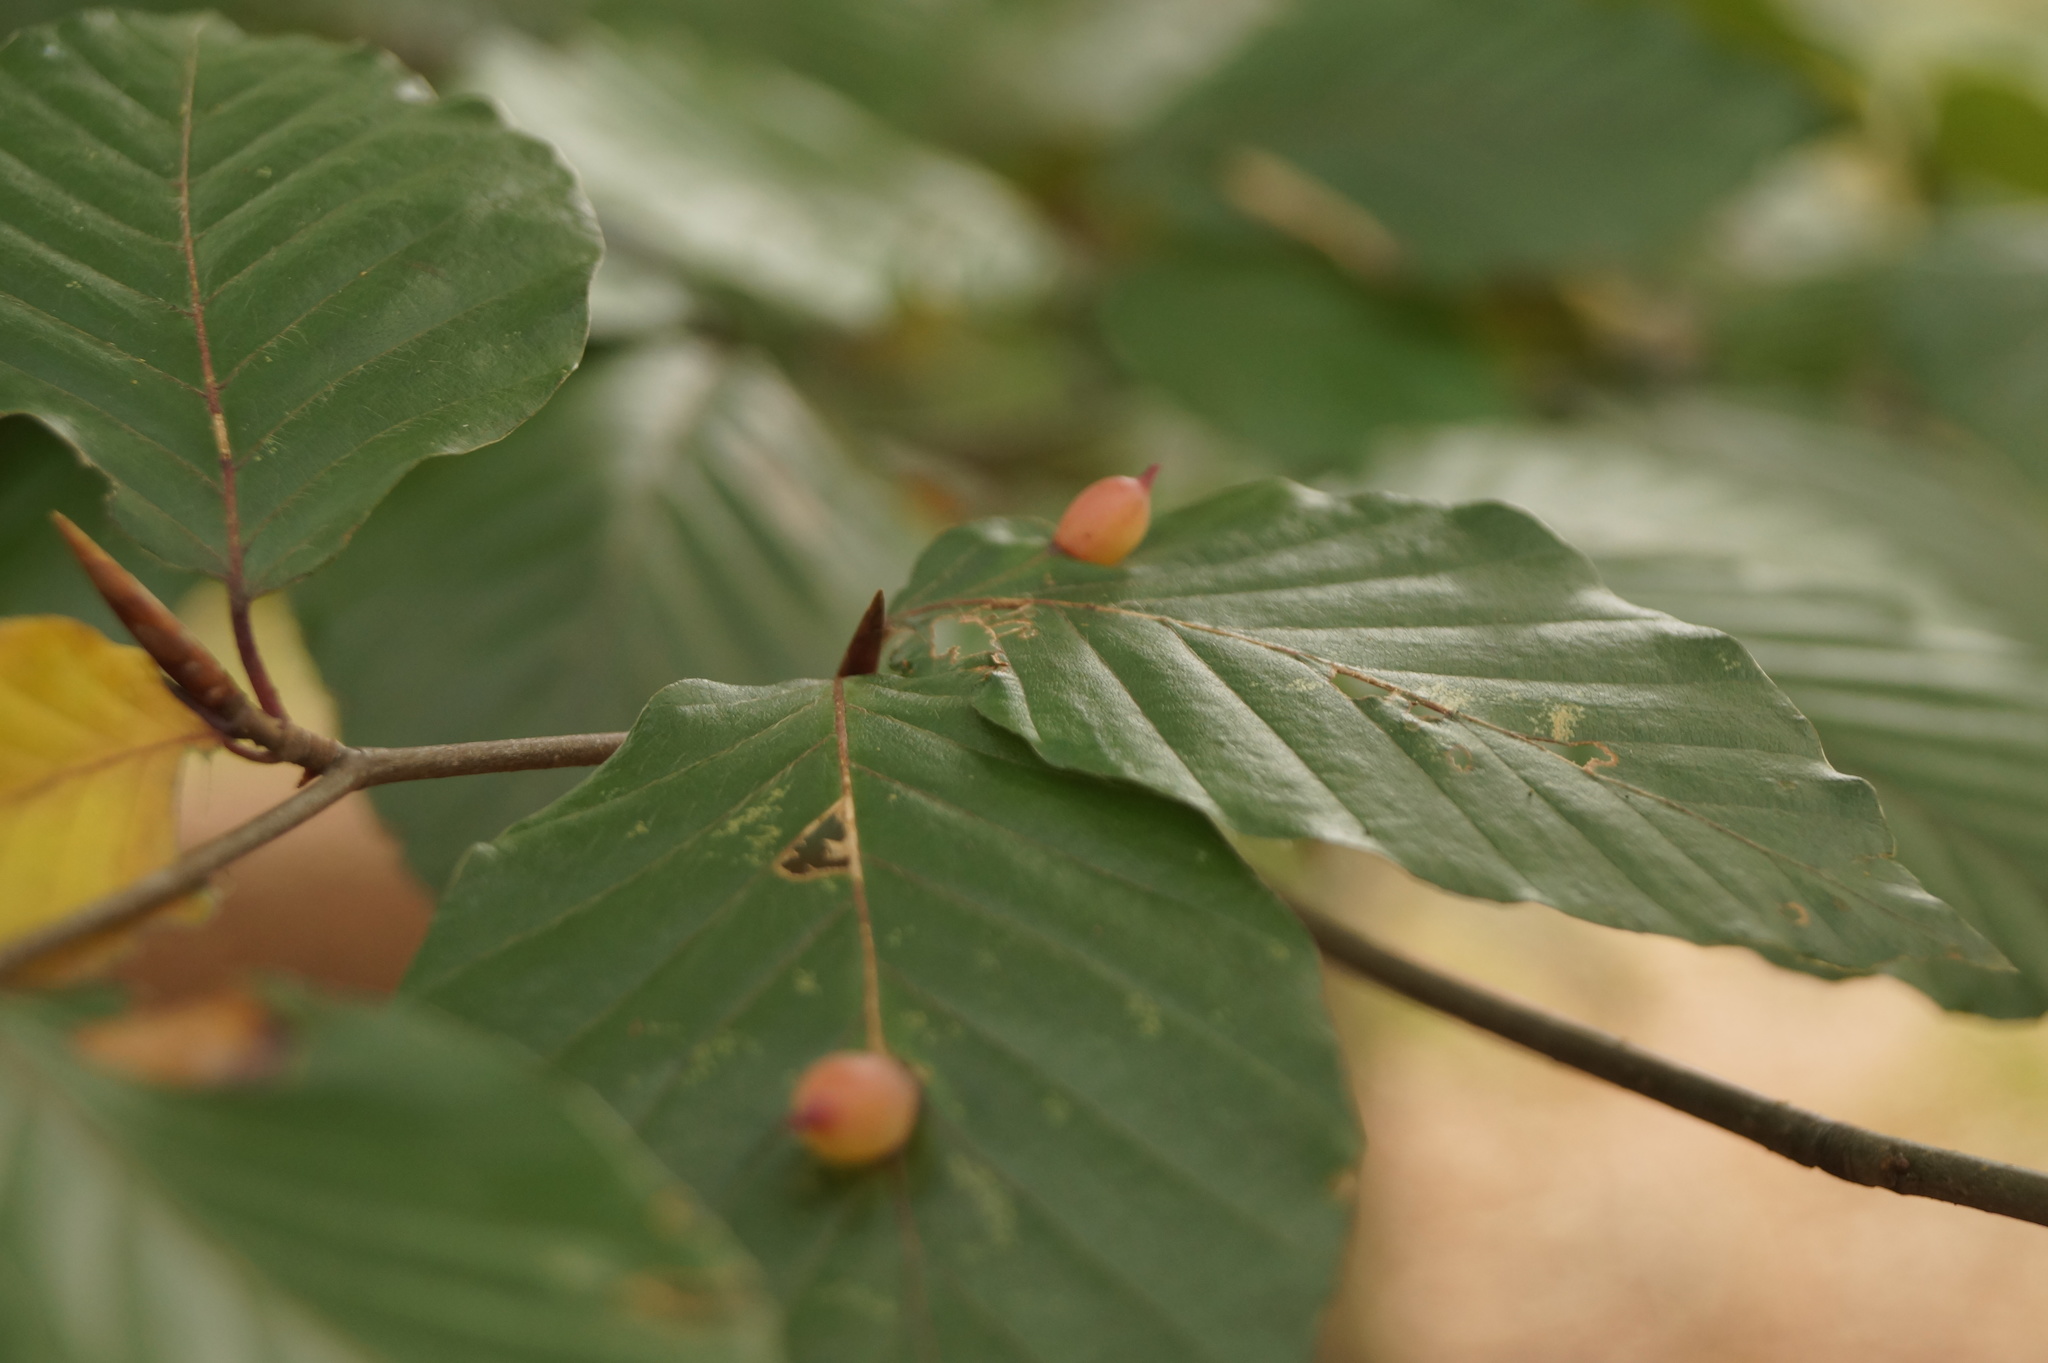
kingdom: Animalia
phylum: Arthropoda
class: Insecta
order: Diptera
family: Cecidomyiidae
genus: Mikiola
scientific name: Mikiola fagi
